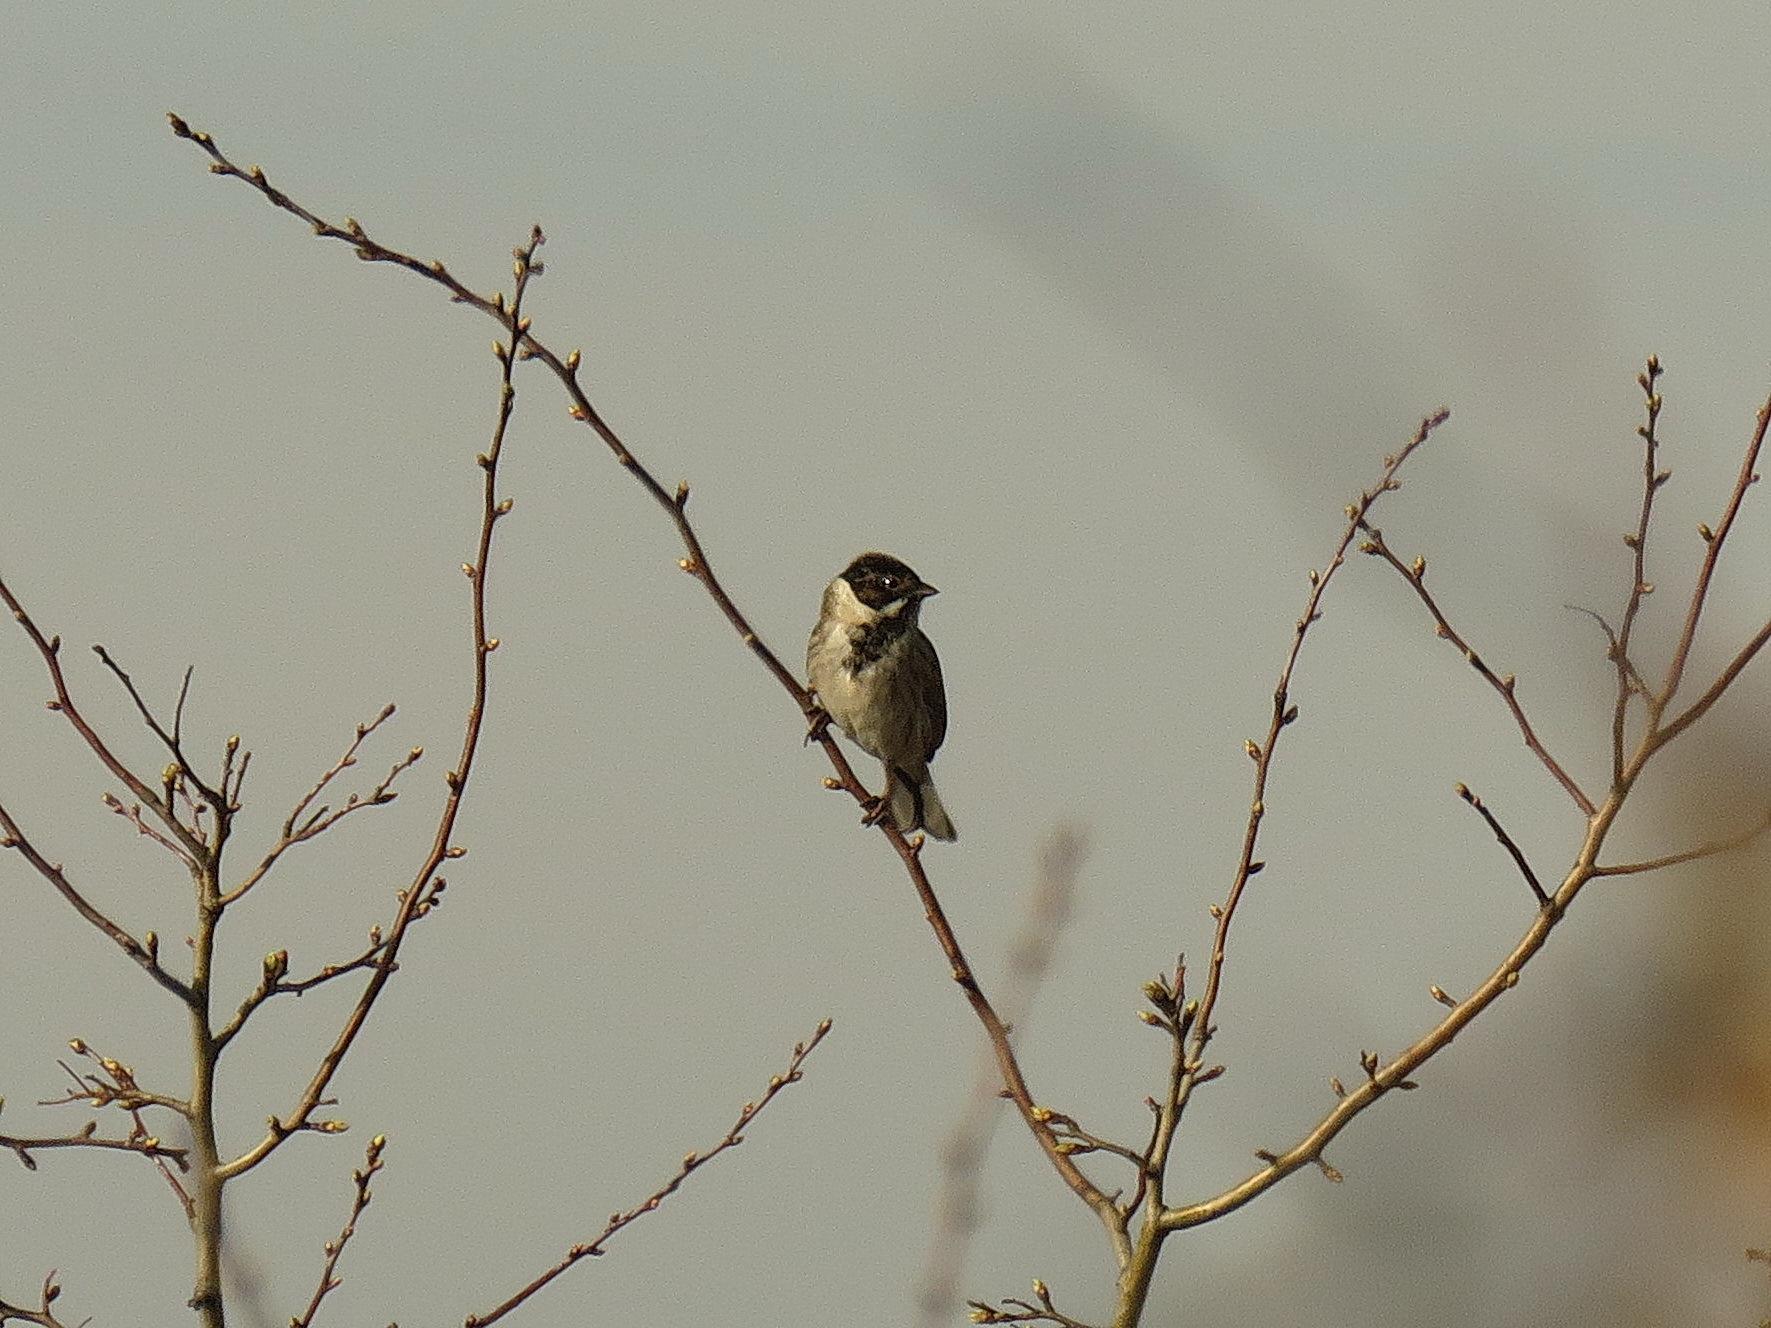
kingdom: Animalia
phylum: Chordata
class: Aves
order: Passeriformes
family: Emberizidae
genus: Emberiza
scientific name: Emberiza schoeniclus
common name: Reed bunting
